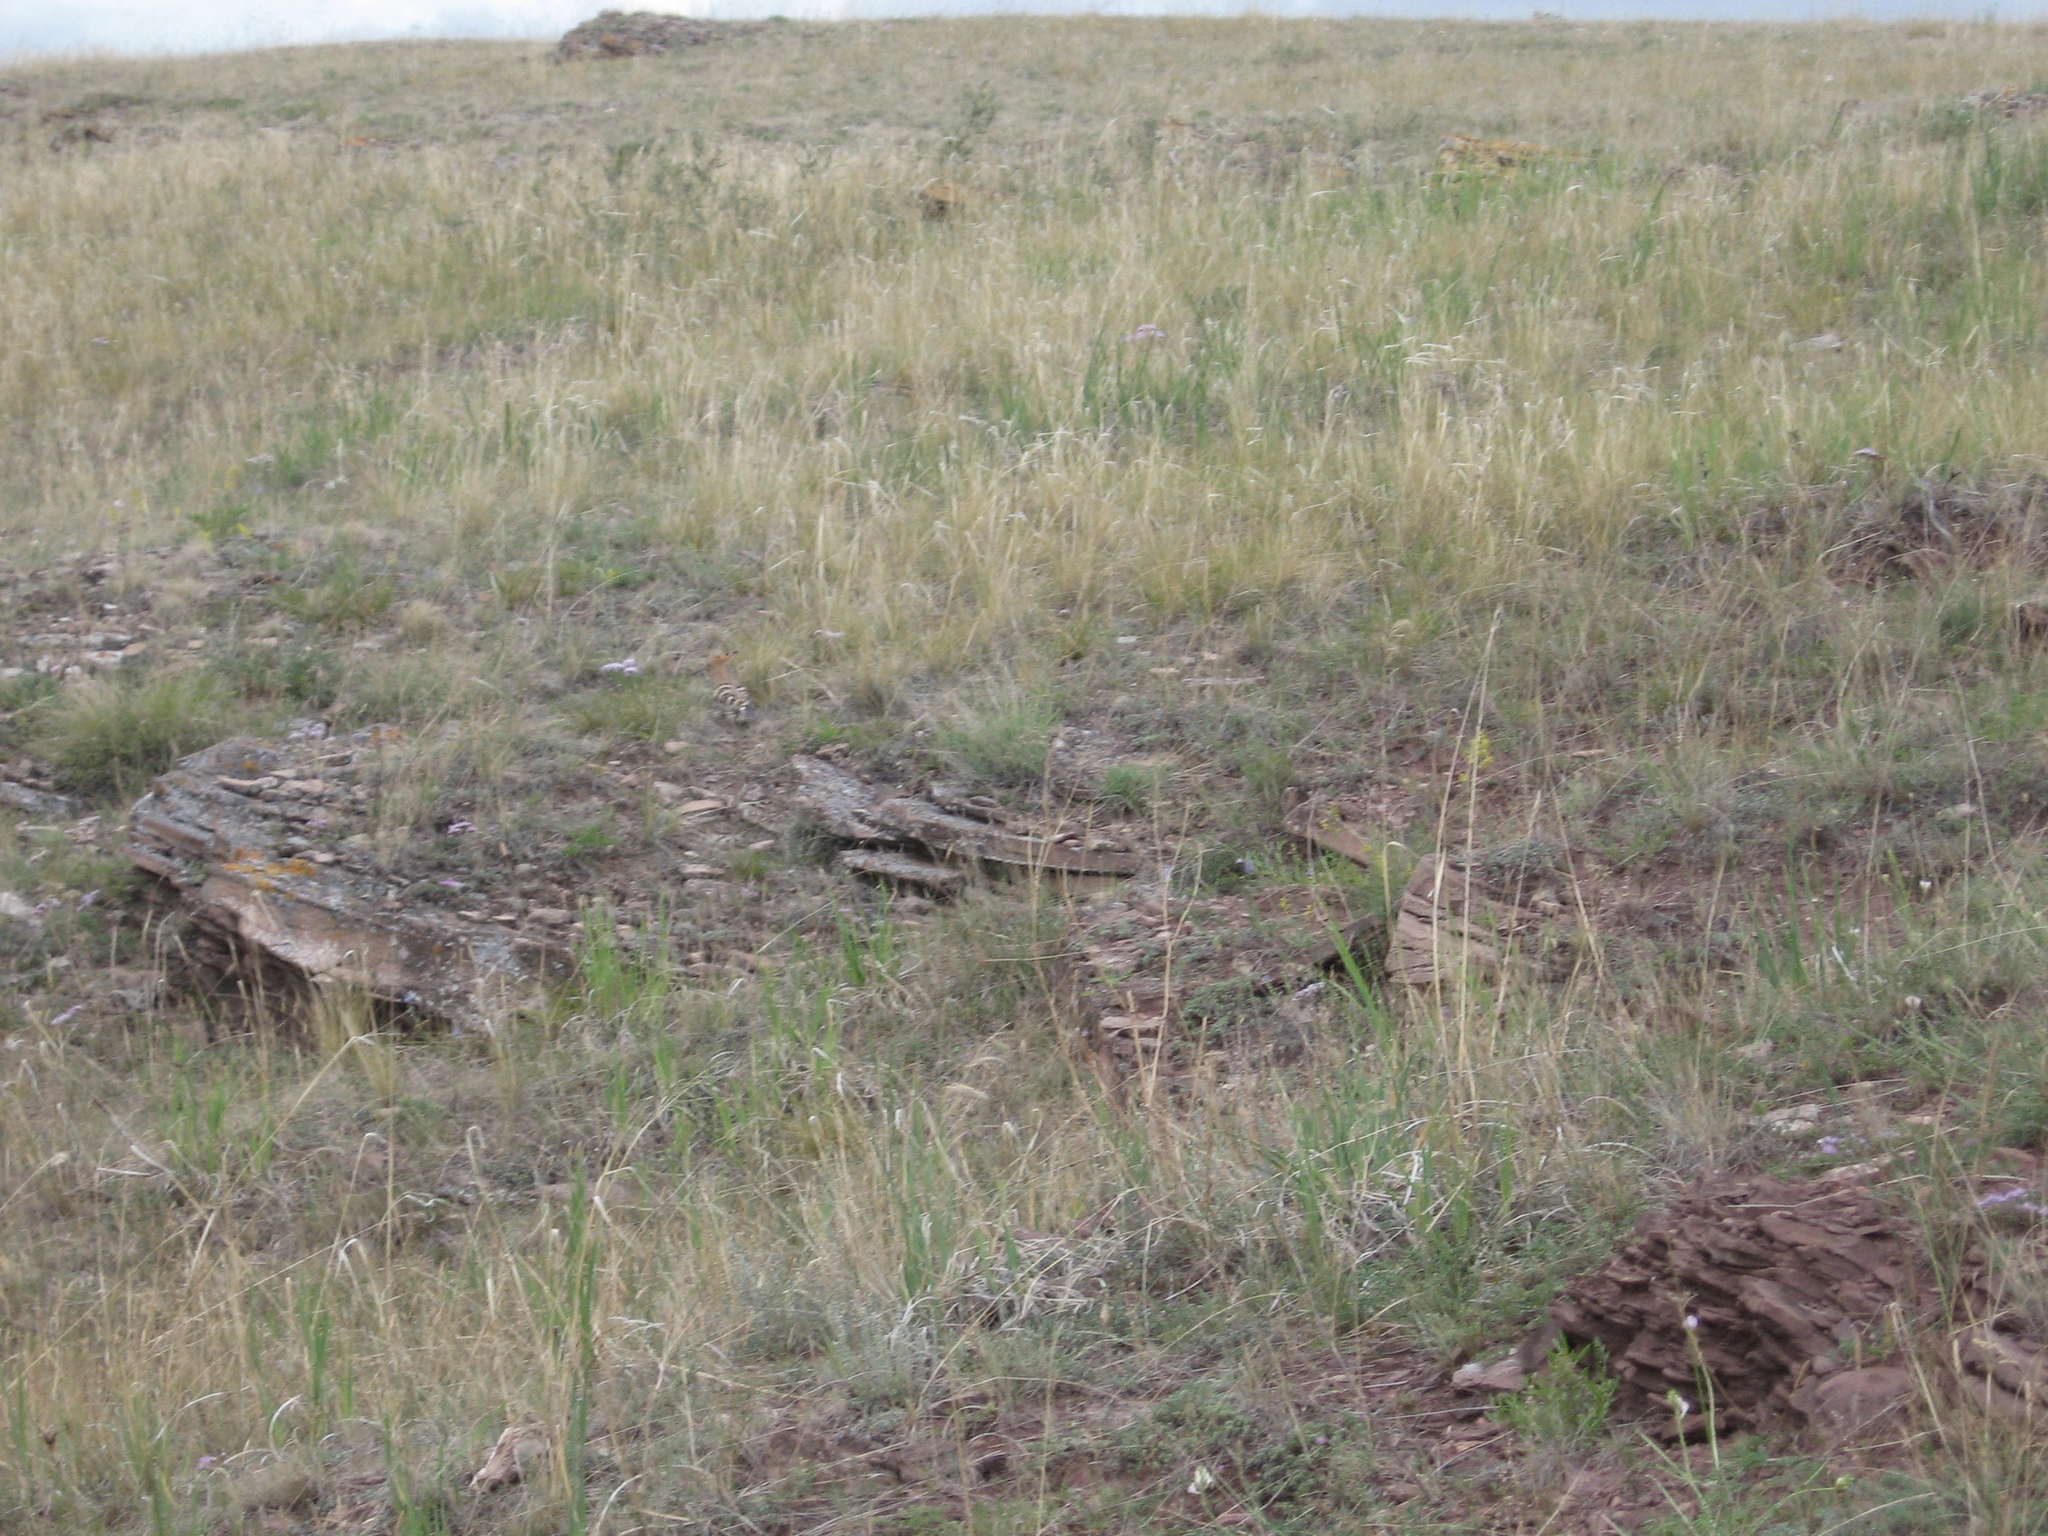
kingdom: Animalia
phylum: Chordata
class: Aves
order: Bucerotiformes
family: Upupidae
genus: Upupa
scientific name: Upupa epops
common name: Eurasian hoopoe
